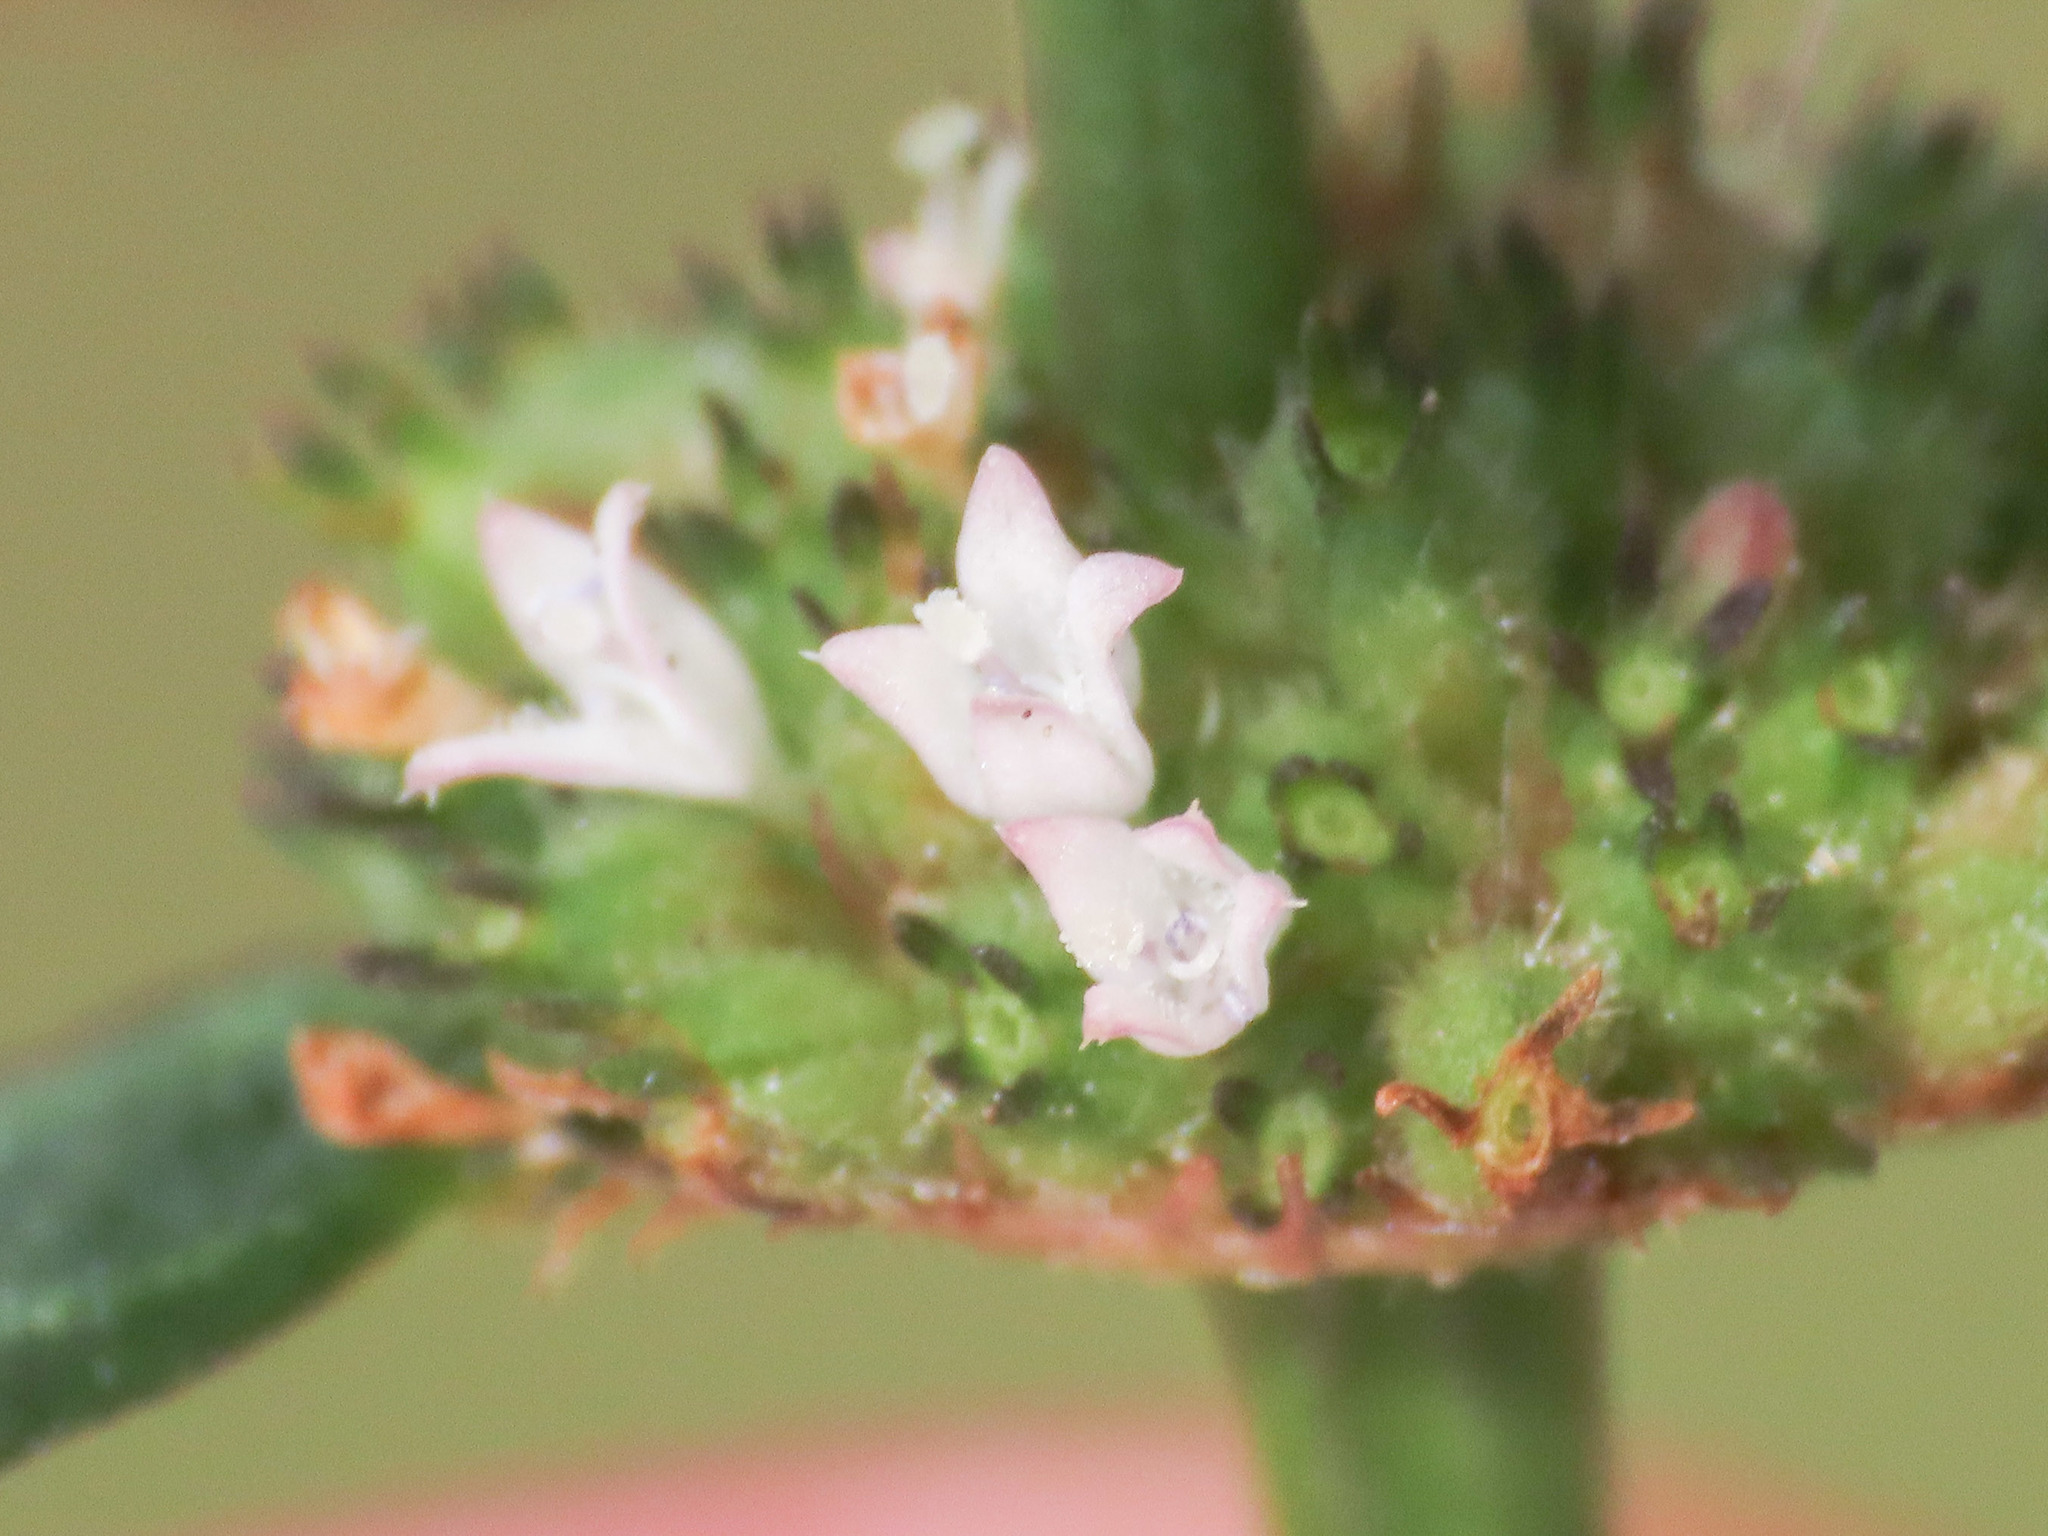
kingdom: Plantae
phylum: Tracheophyta
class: Magnoliopsida
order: Gentianales
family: Rubiaceae
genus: Spermacoce
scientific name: Spermacoce remota
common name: Woodland false buttonweed
